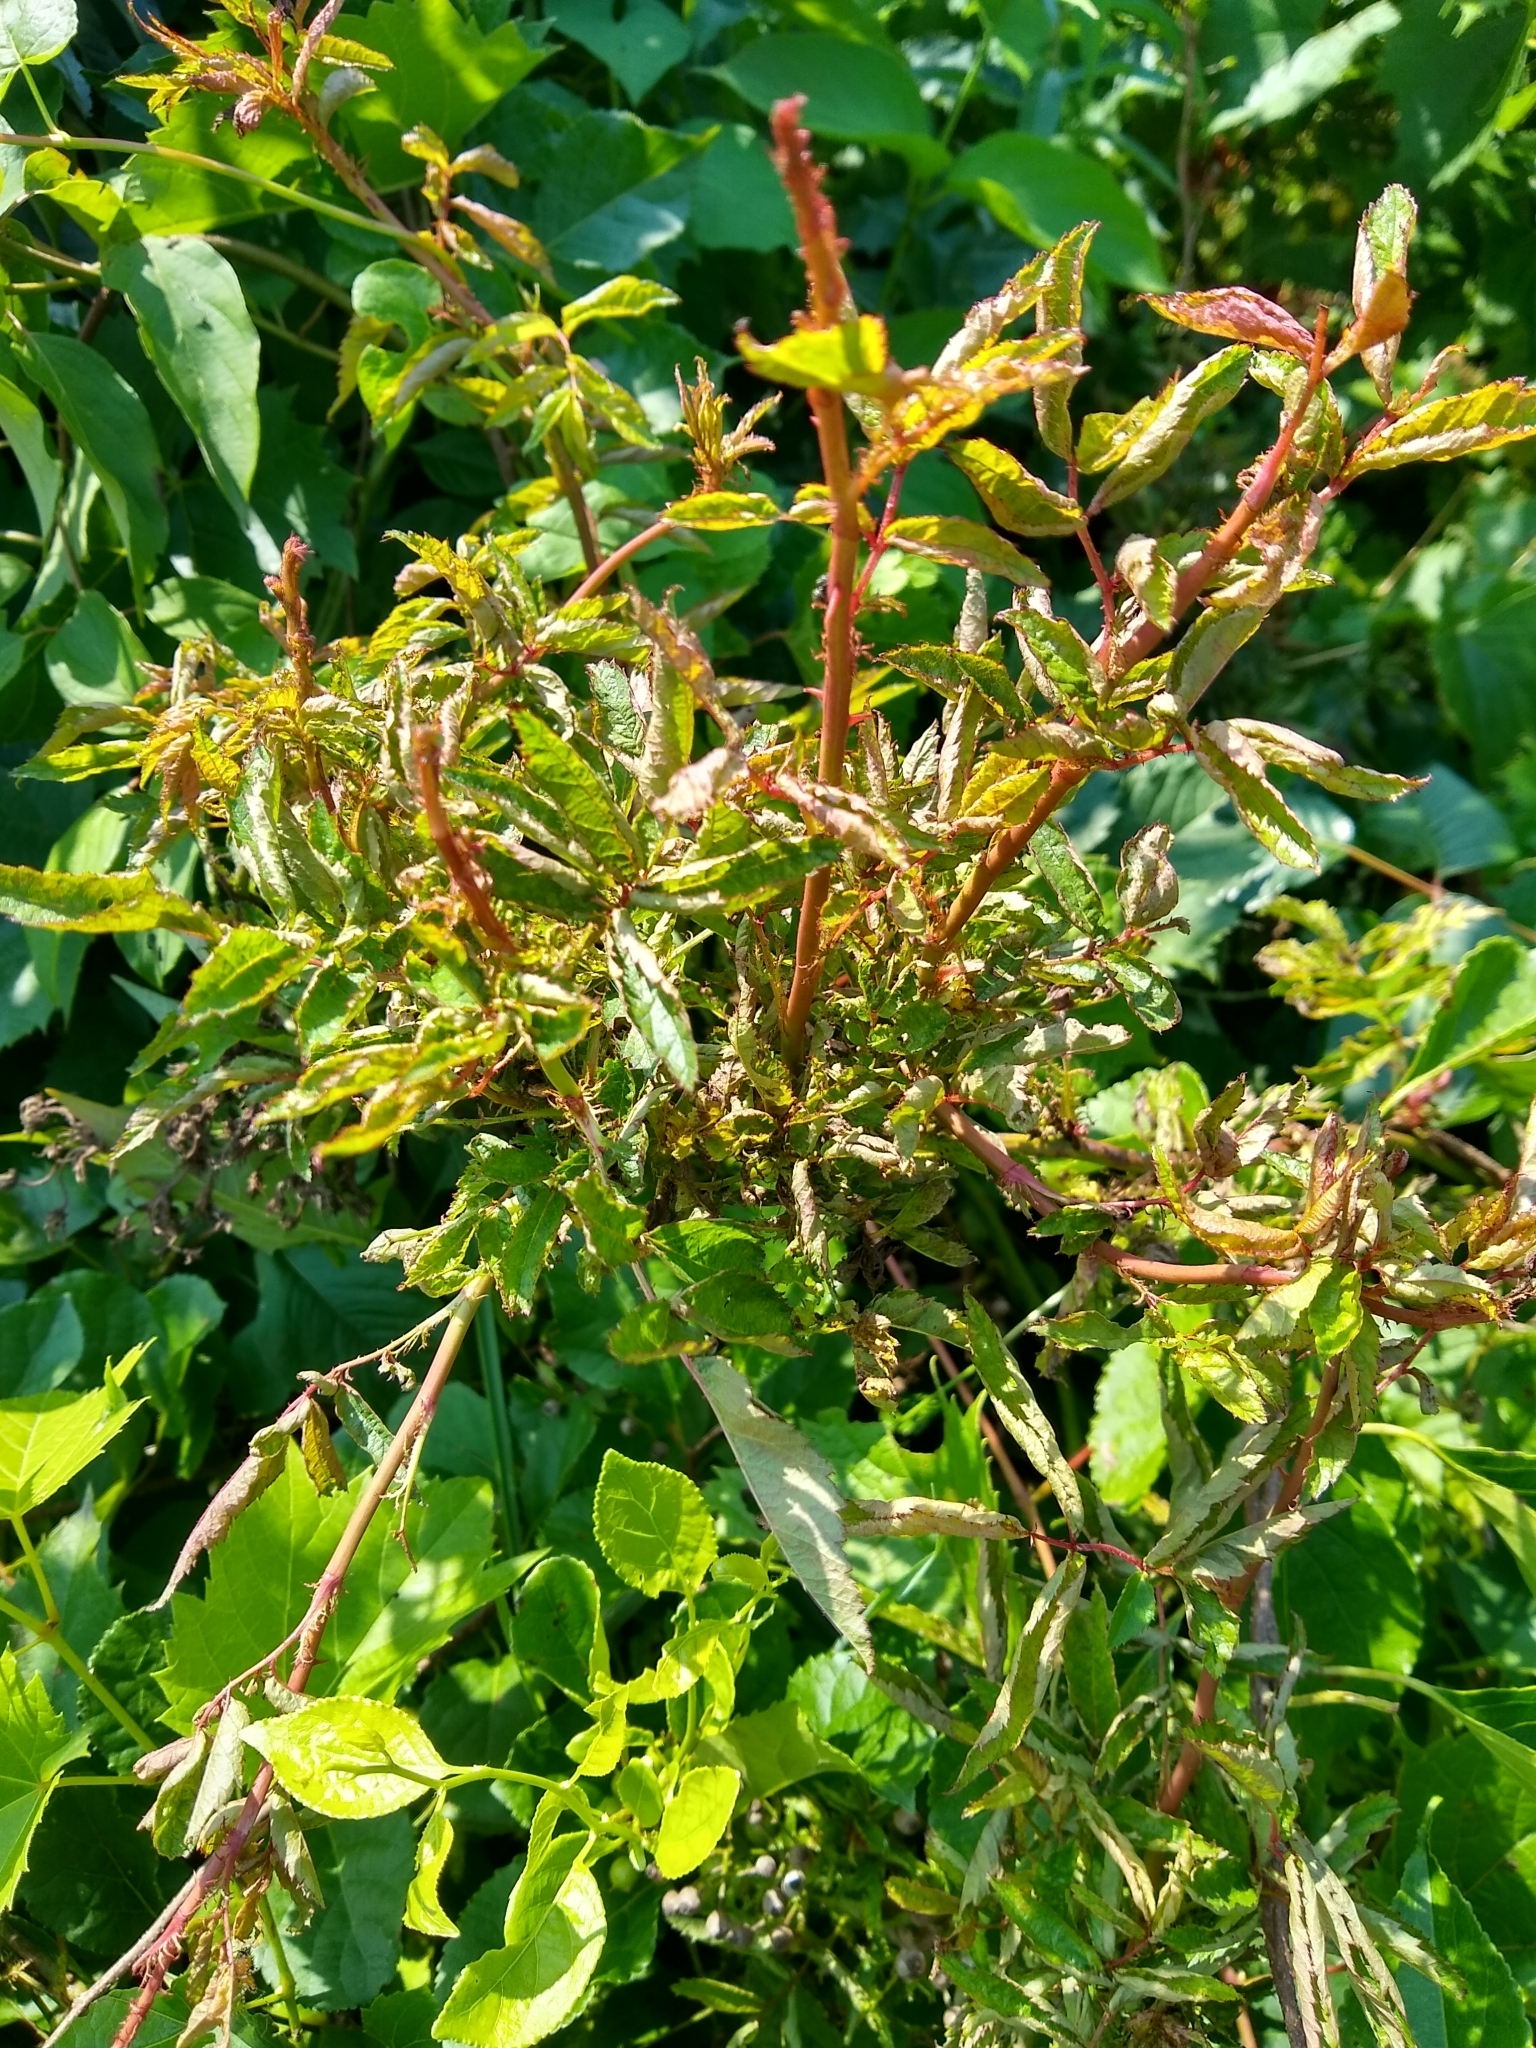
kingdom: Viruses
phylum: Negarnaviricota
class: Ellioviricetes
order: Bunyavirales
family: Fimoviridae
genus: Emaravirus
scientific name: Emaravirus rosae
